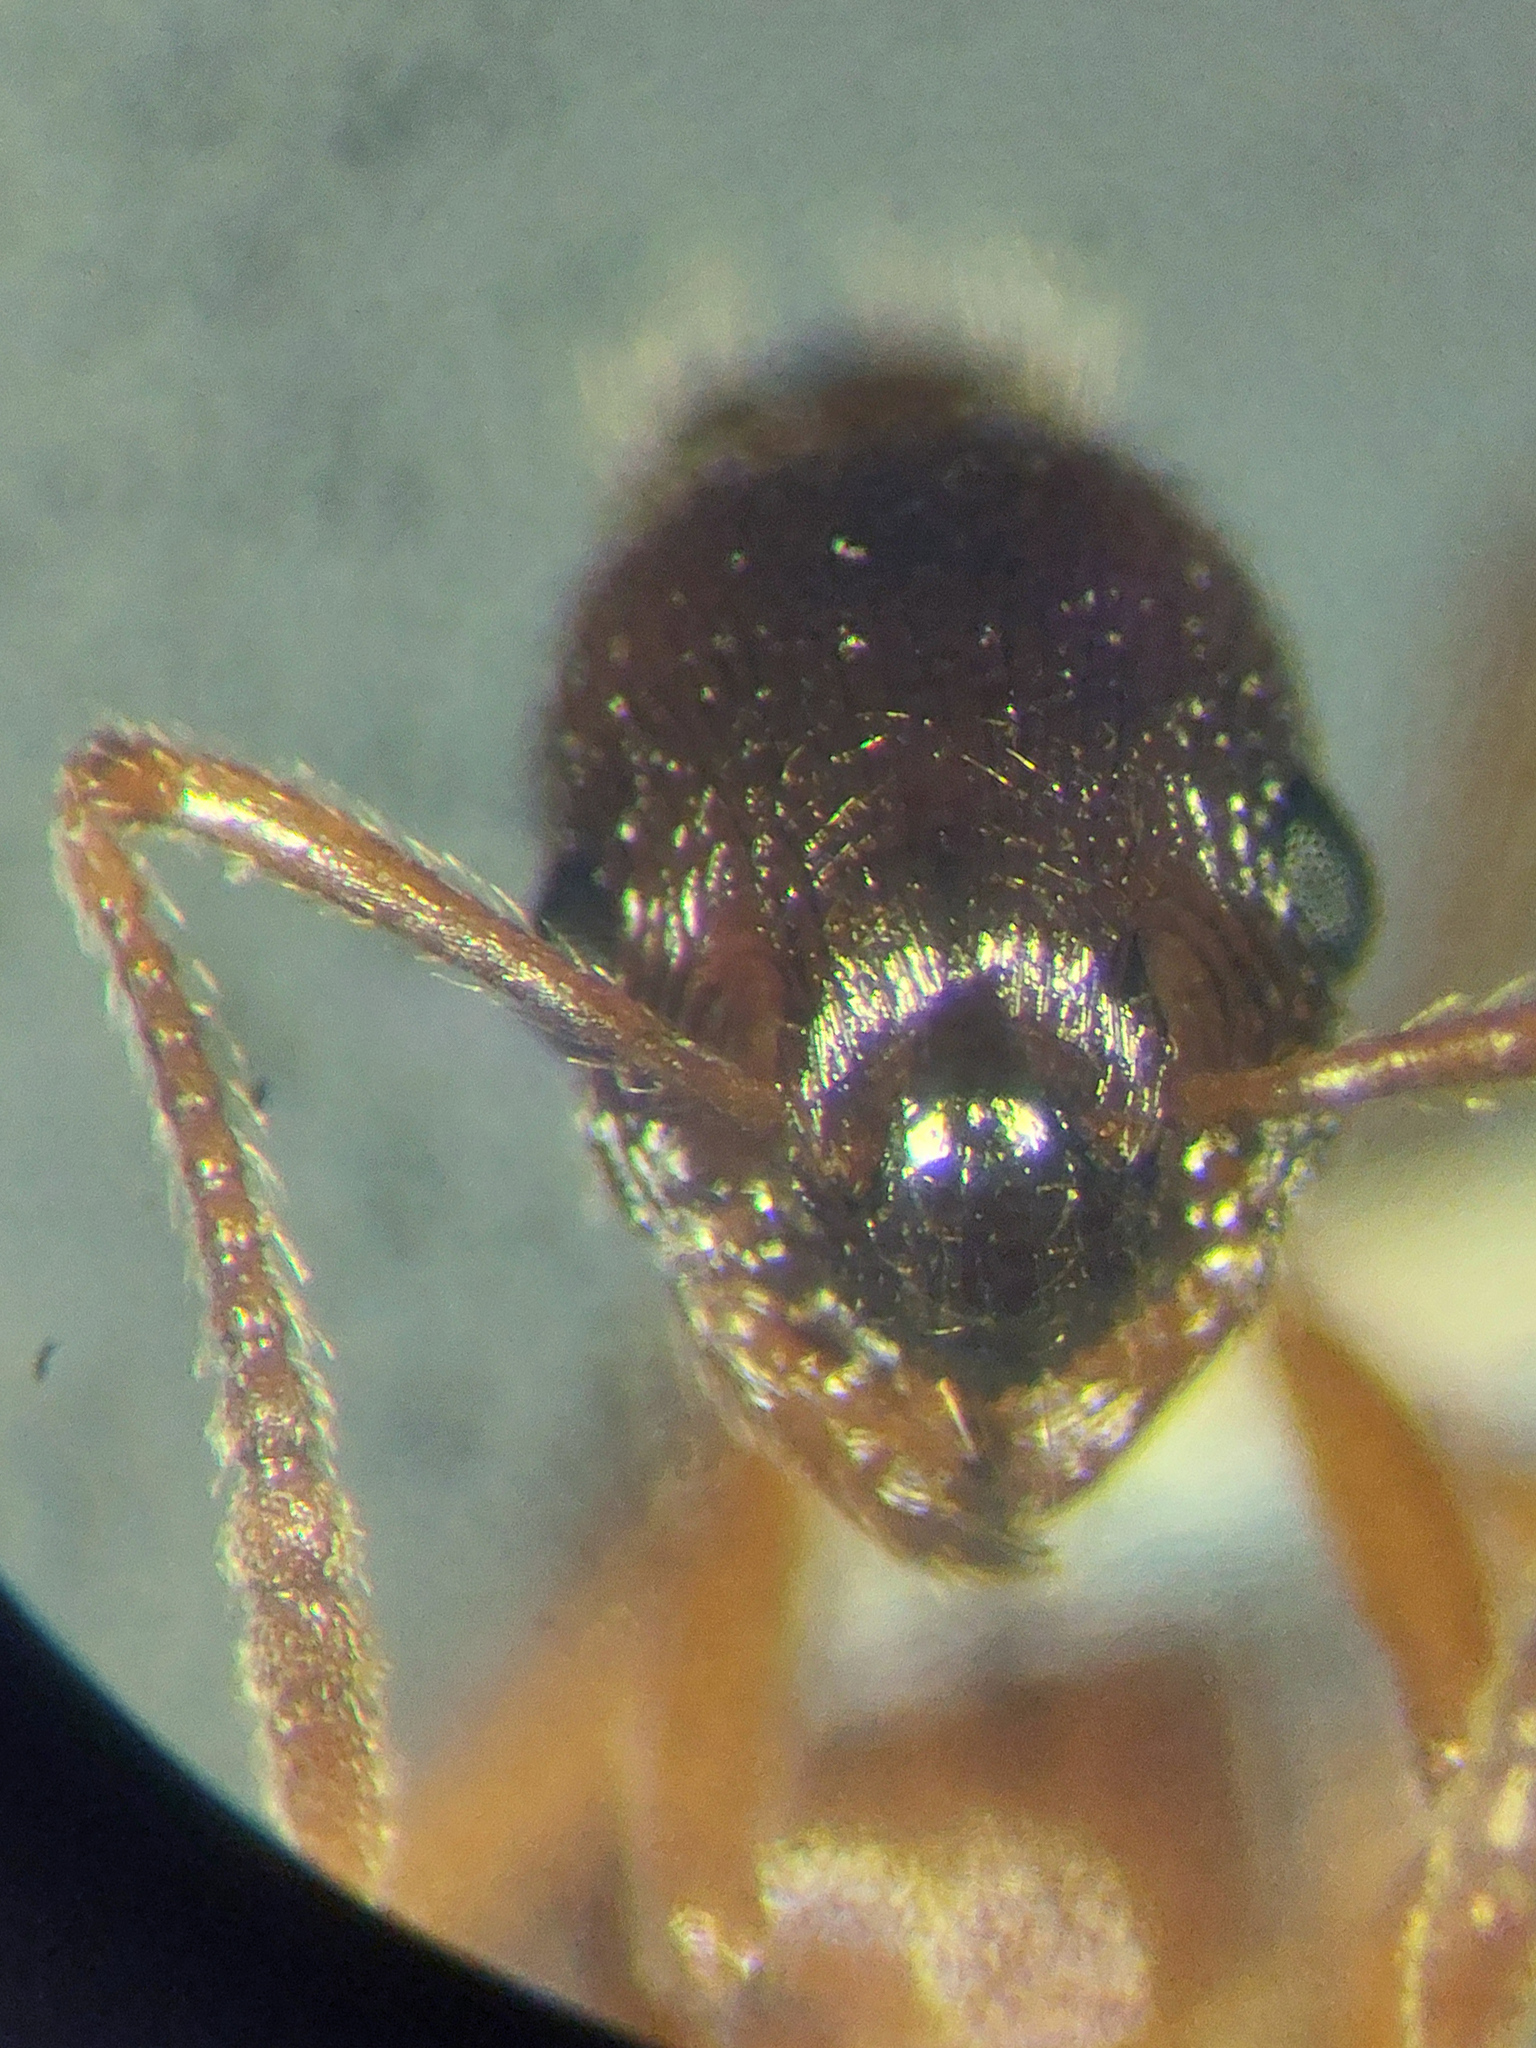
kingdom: Animalia
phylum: Arthropoda
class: Insecta
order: Hymenoptera
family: Formicidae
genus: Myrmica
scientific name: Myrmica ruginodis
